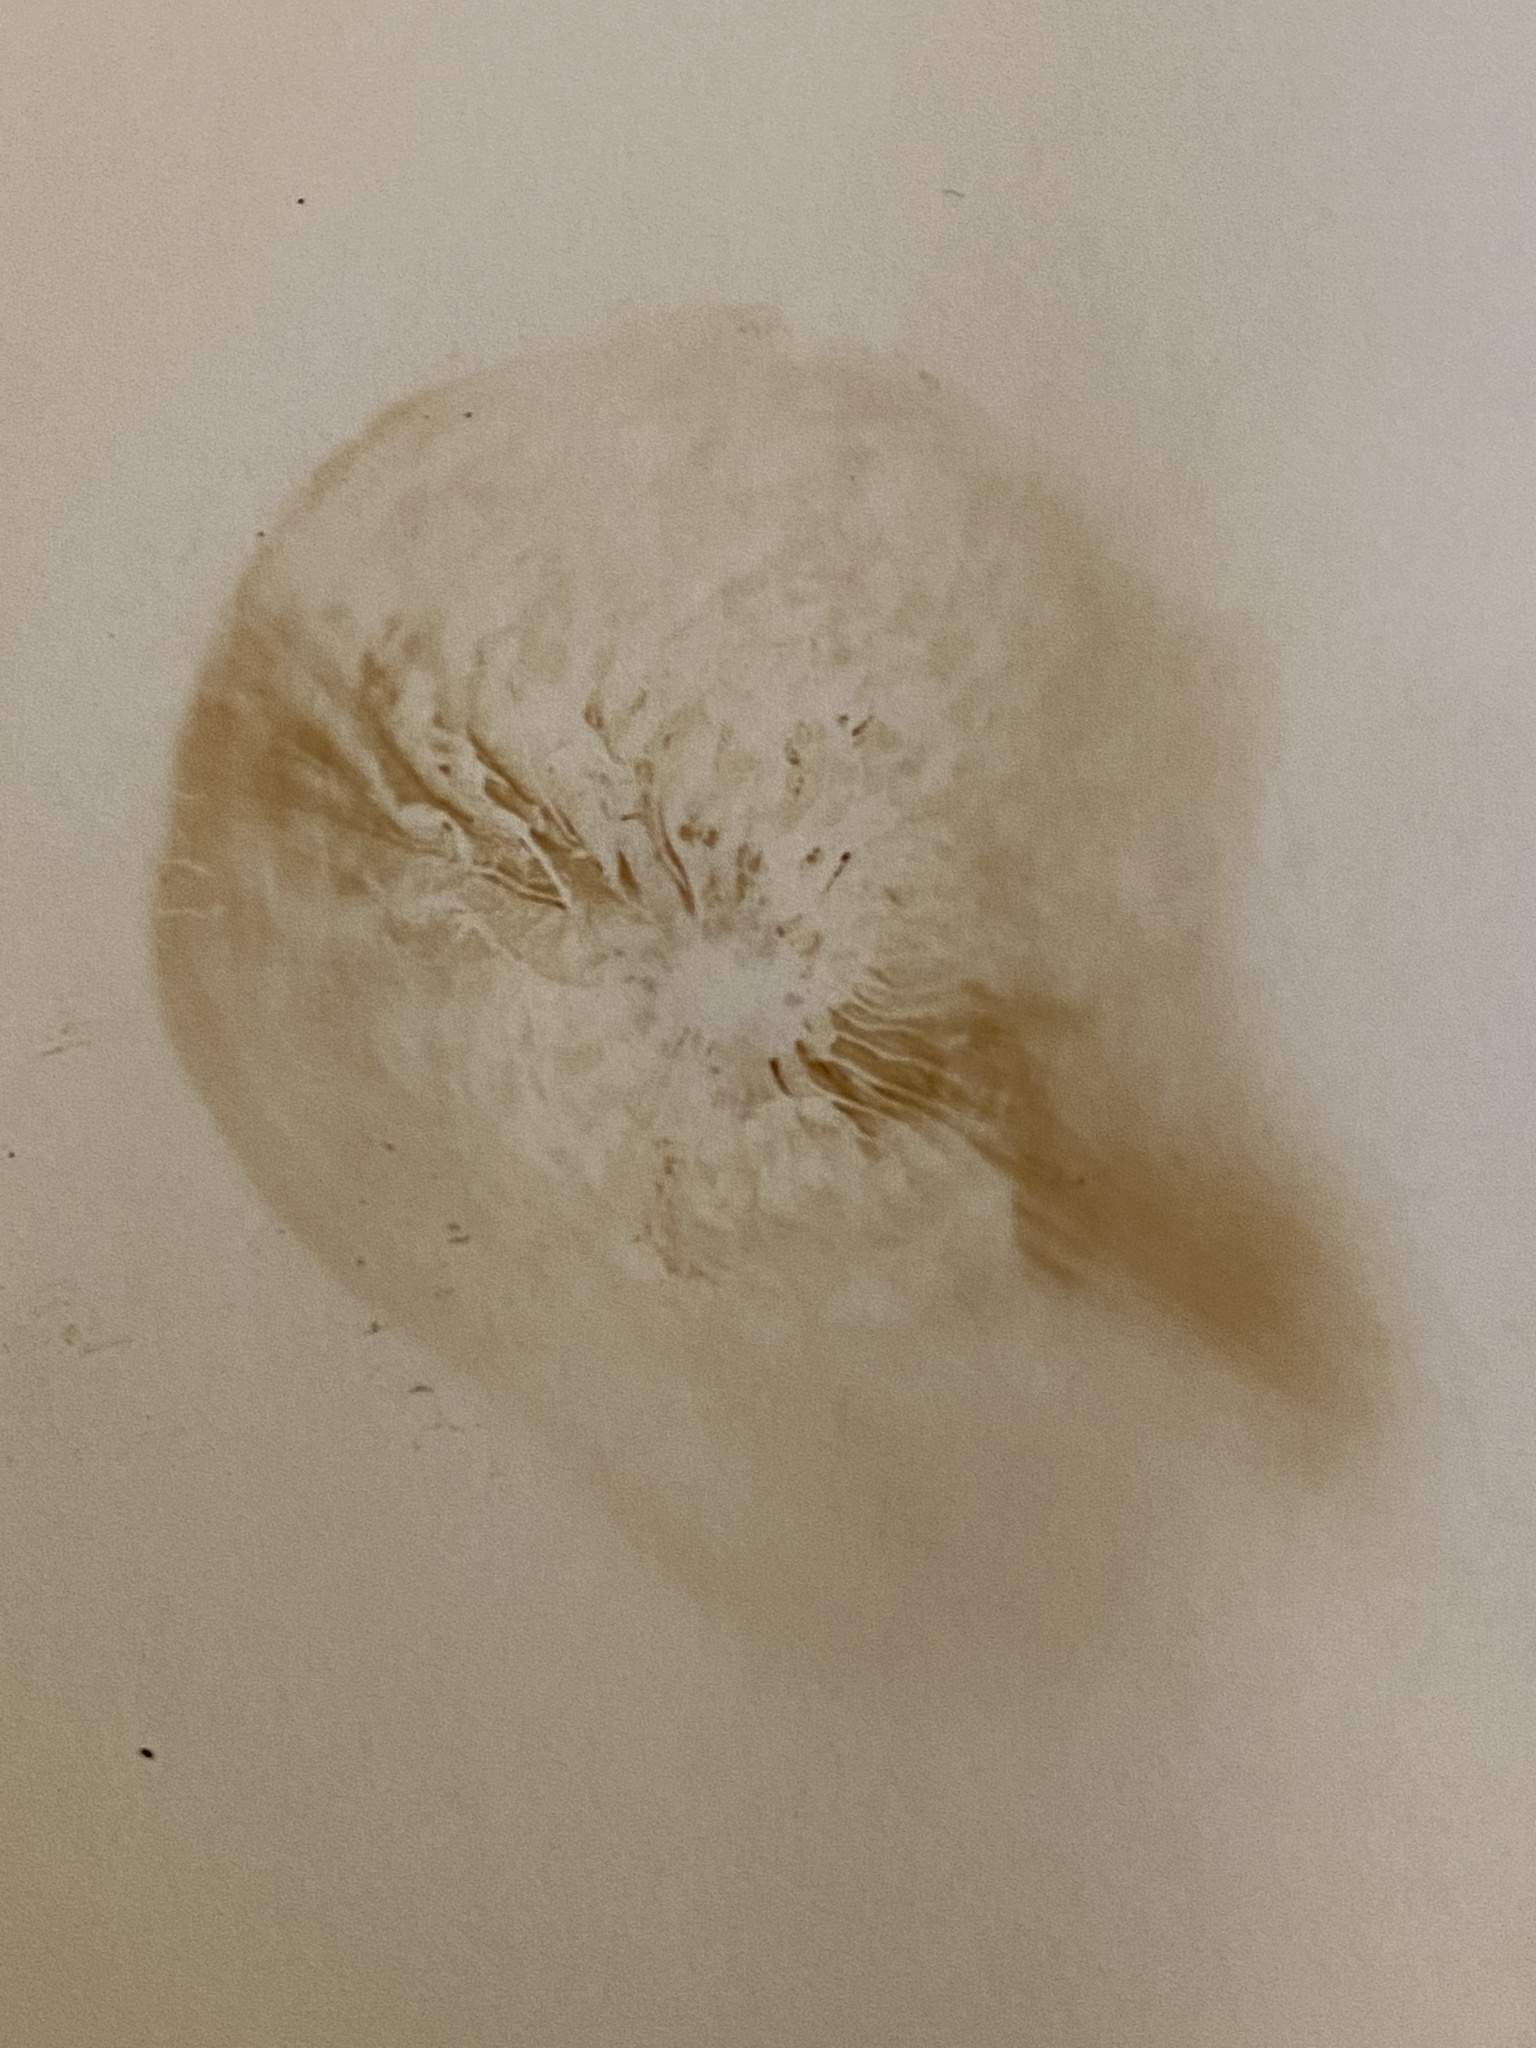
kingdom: Fungi
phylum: Basidiomycota
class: Agaricomycetes
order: Agaricales
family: Tubariaceae
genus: Tubaria
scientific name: Tubaria furfuracea
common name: Scurfy twiglet
